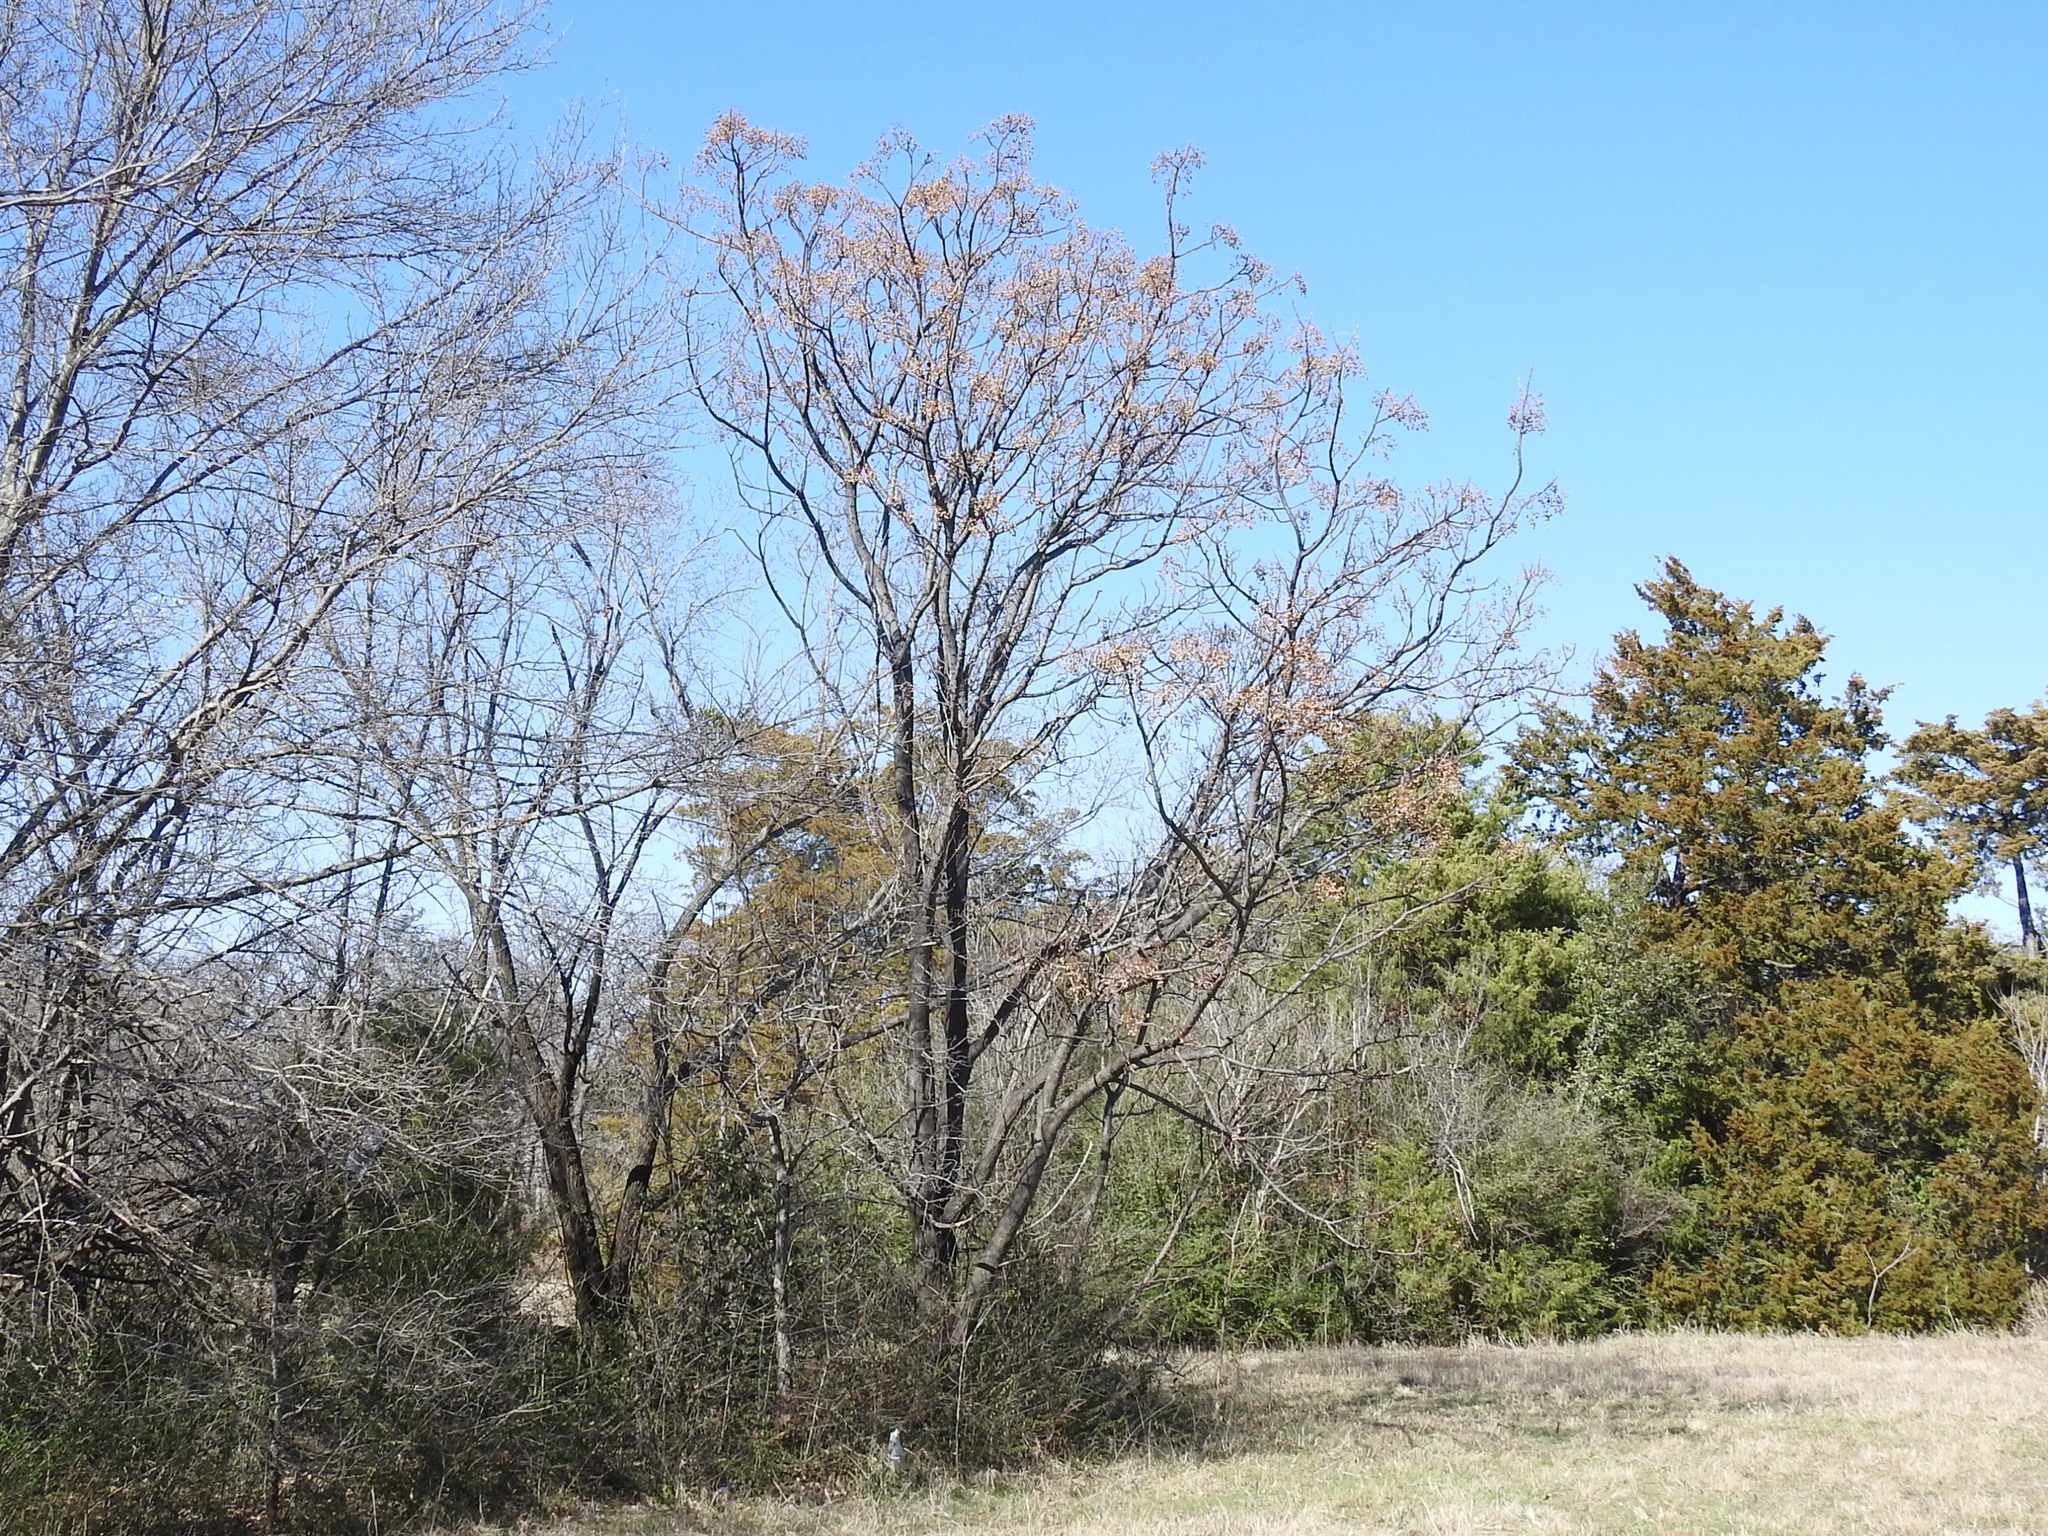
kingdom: Plantae
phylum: Tracheophyta
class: Magnoliopsida
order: Sapindales
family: Meliaceae
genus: Melia
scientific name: Melia azedarach
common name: Chinaberrytree
